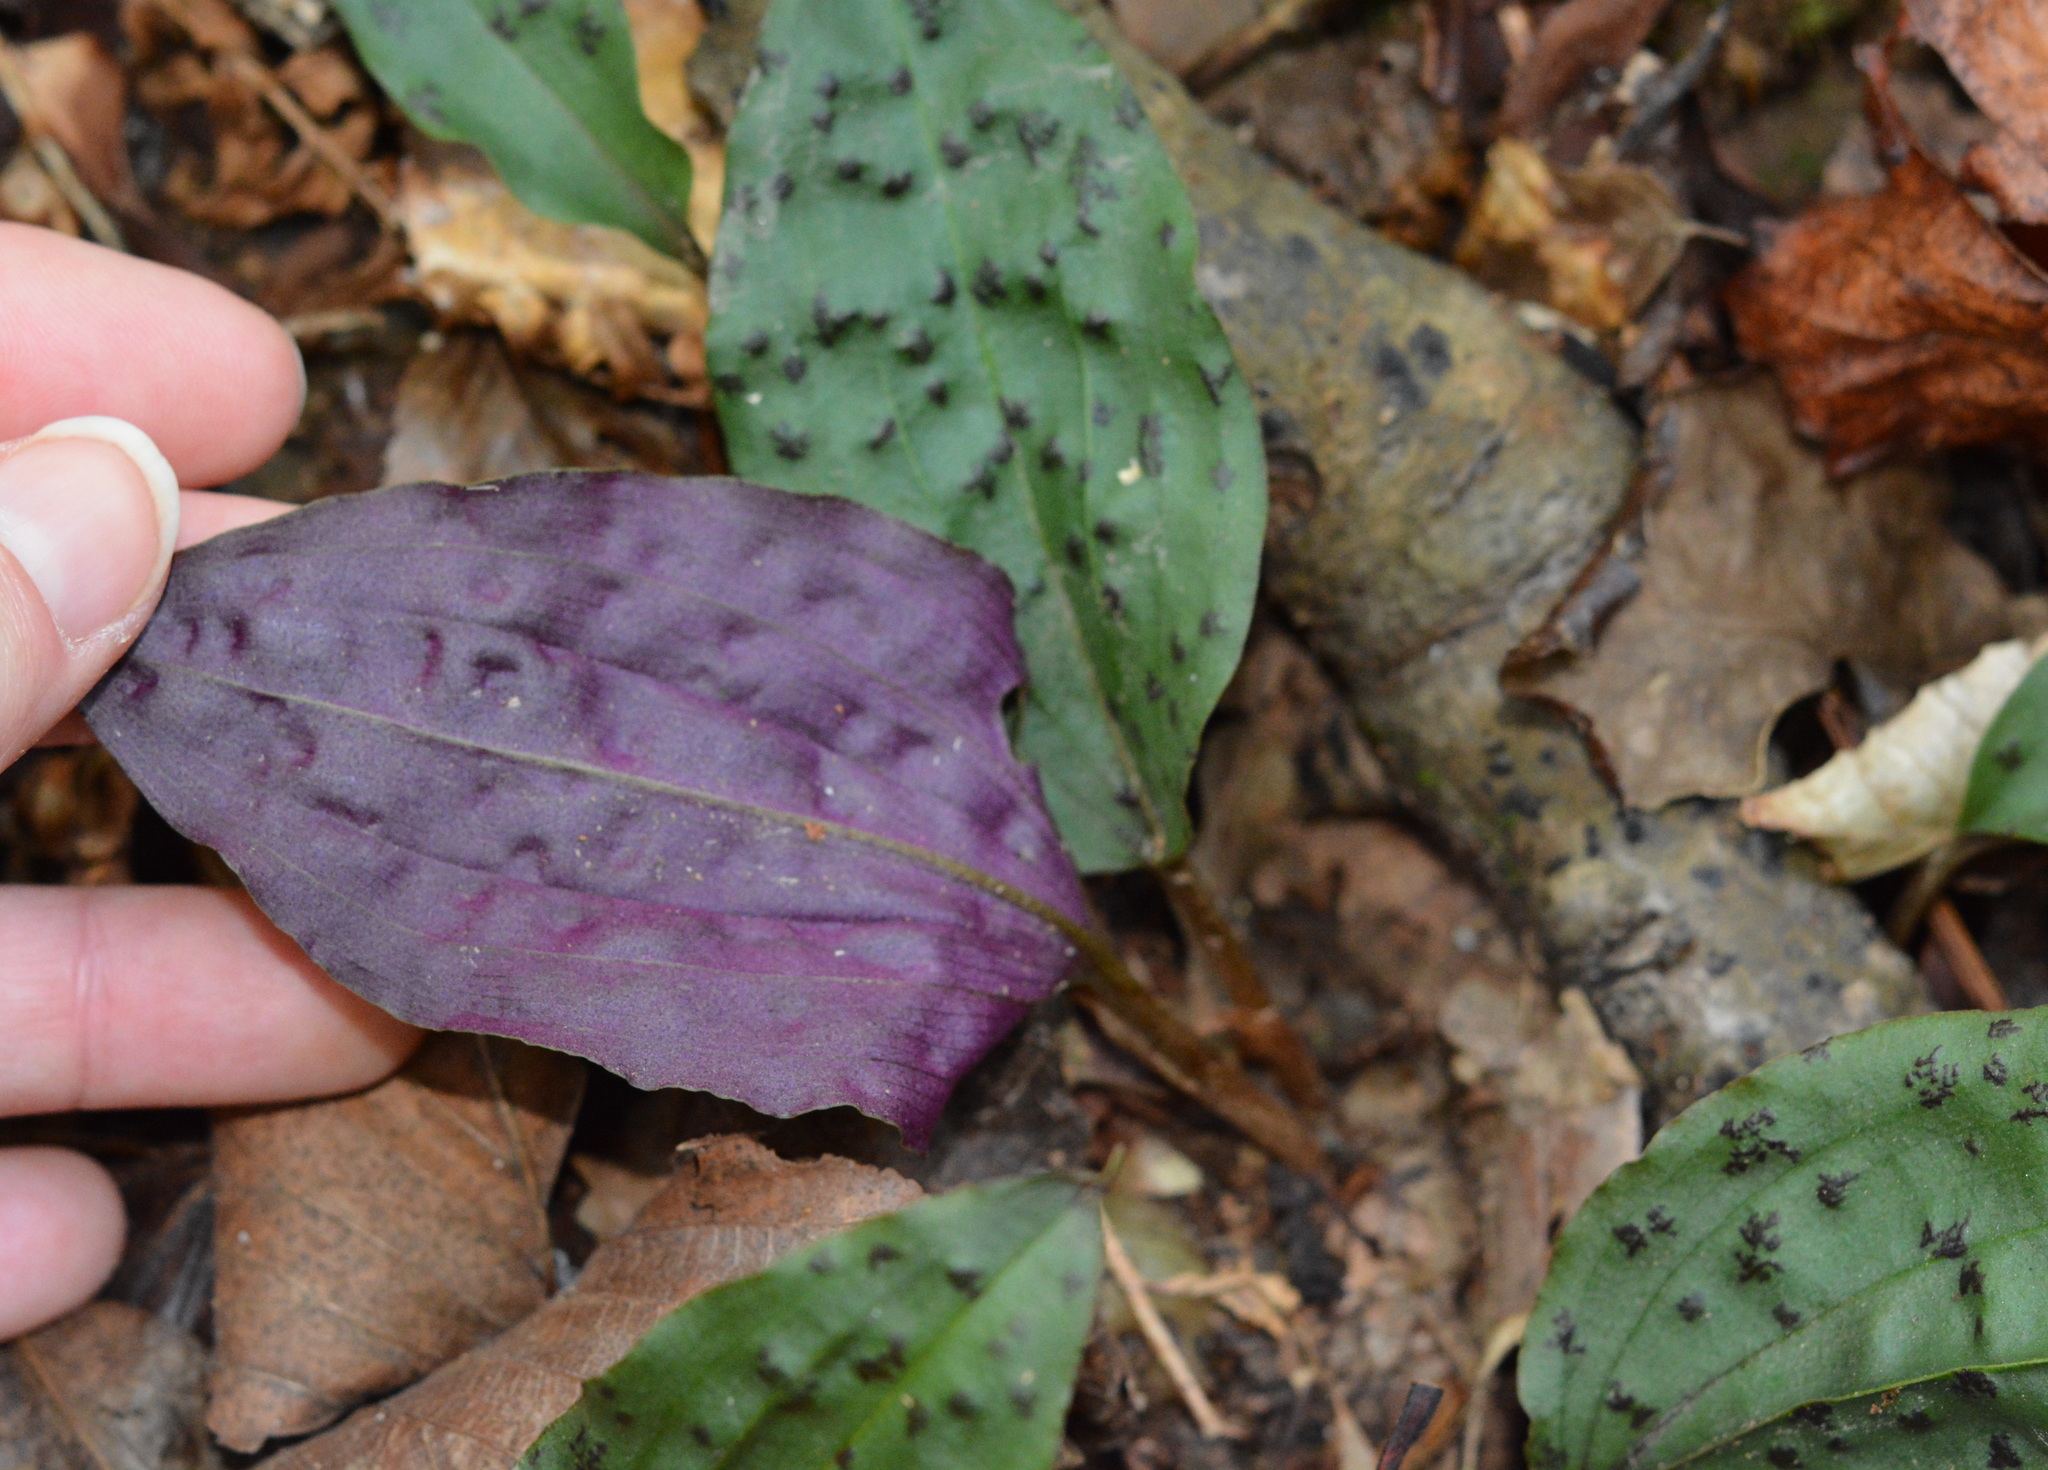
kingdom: Plantae
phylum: Tracheophyta
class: Liliopsida
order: Asparagales
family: Orchidaceae
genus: Tipularia
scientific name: Tipularia discolor
